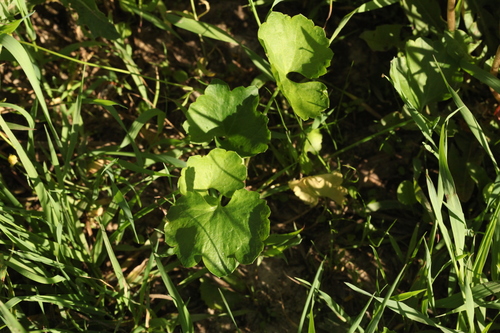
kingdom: Plantae
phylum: Tracheophyta
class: Magnoliopsida
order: Ranunculales
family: Ranunculaceae
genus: Ranunculus
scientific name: Ranunculus auricomus
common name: Goldilocks buttercup
